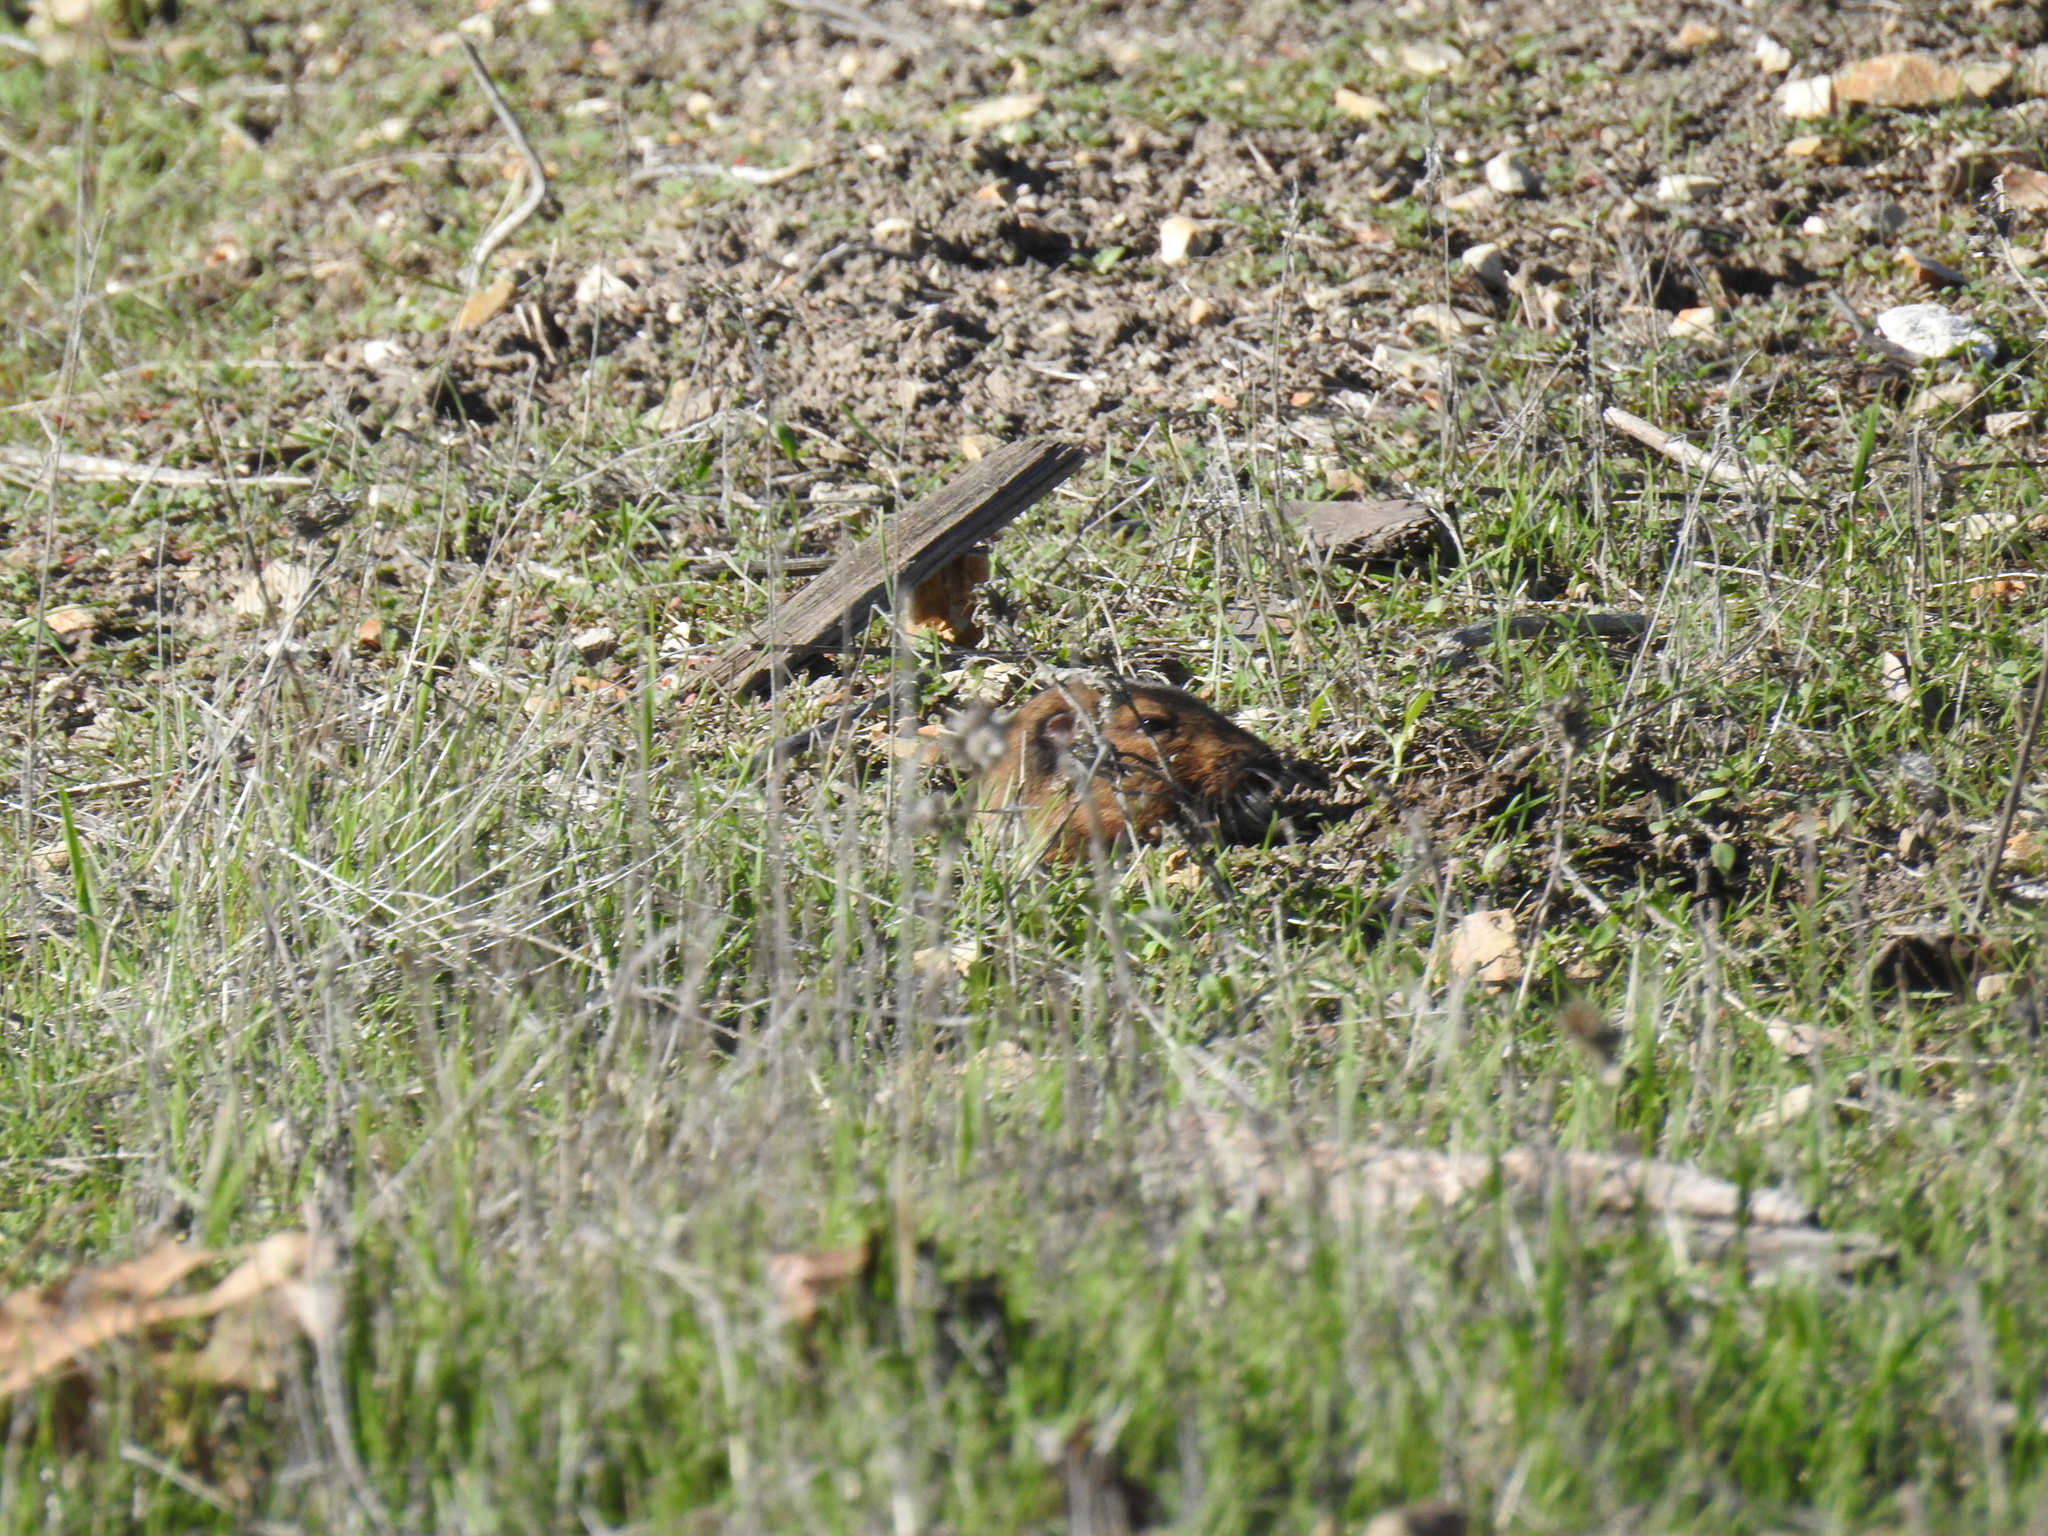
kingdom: Animalia
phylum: Chordata
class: Mammalia
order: Rodentia
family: Geomyidae
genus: Thomomys
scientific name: Thomomys bottae
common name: Botta's pocket gopher
